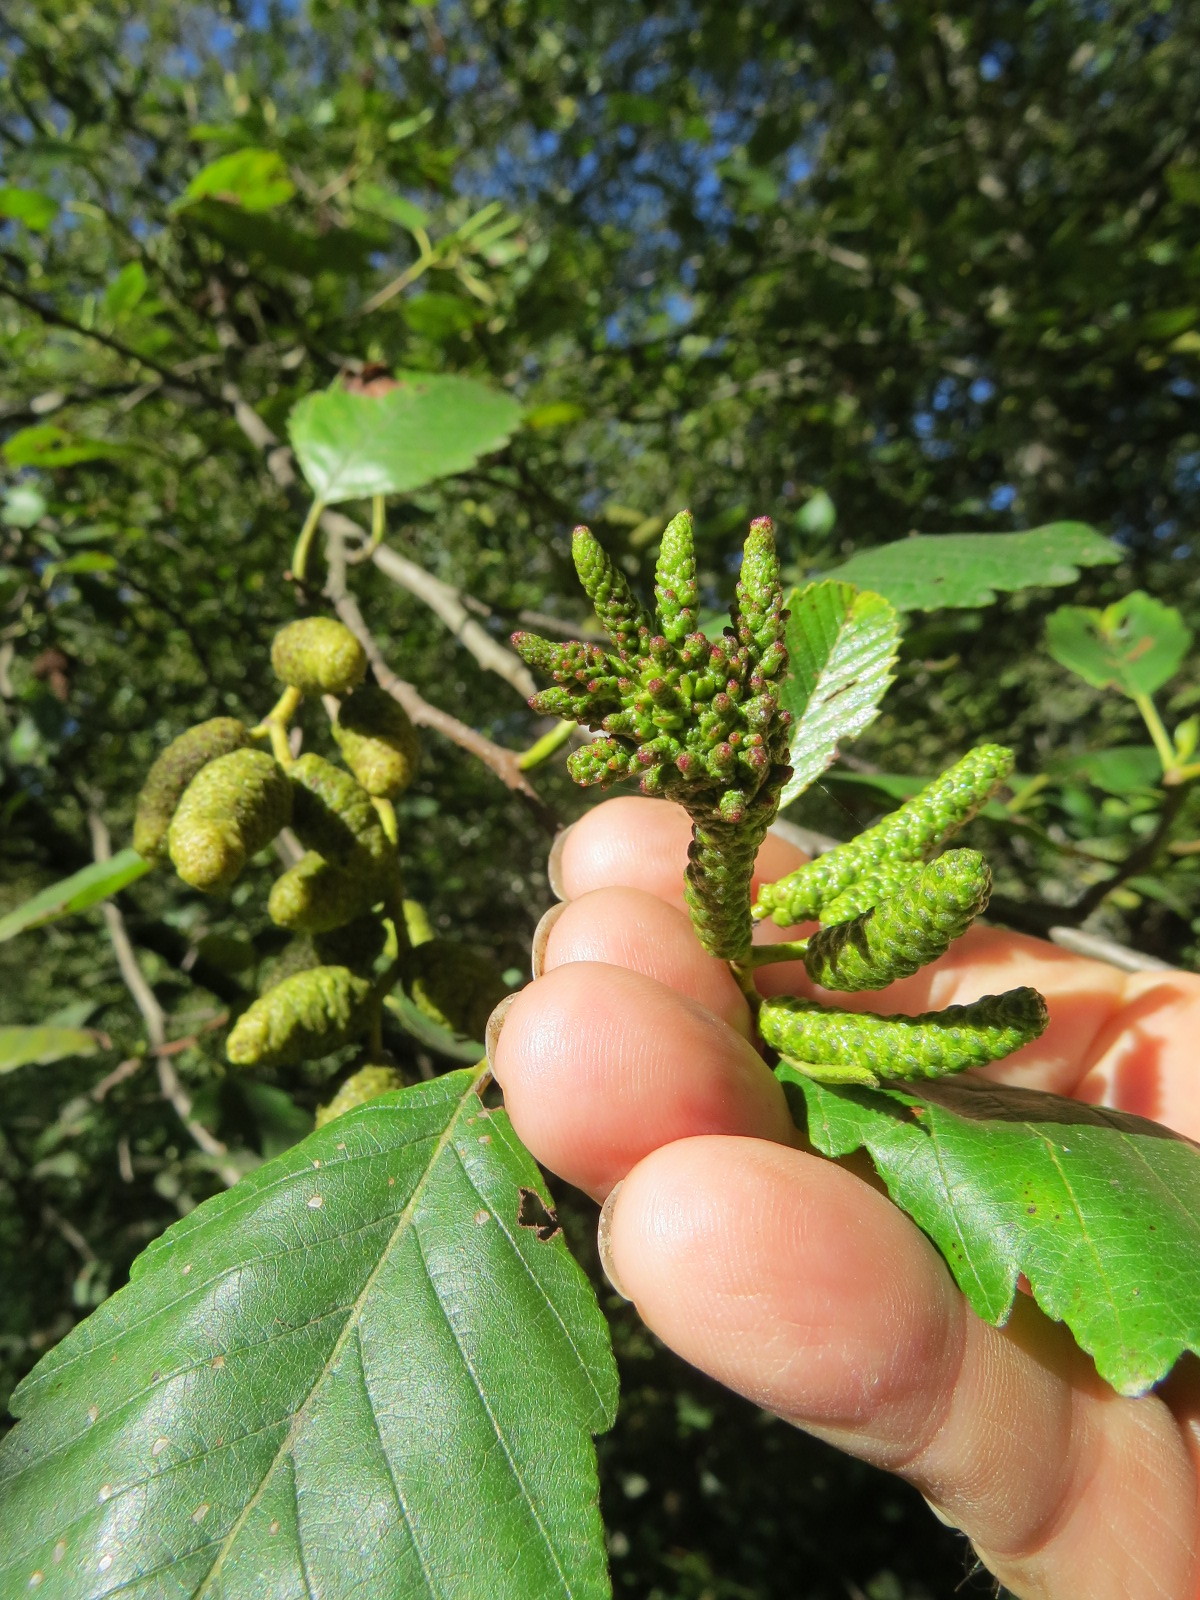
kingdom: Animalia
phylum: Arthropoda
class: Insecta
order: Diptera
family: Cecidomyiidae
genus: Dasineura
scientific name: Dasineura
